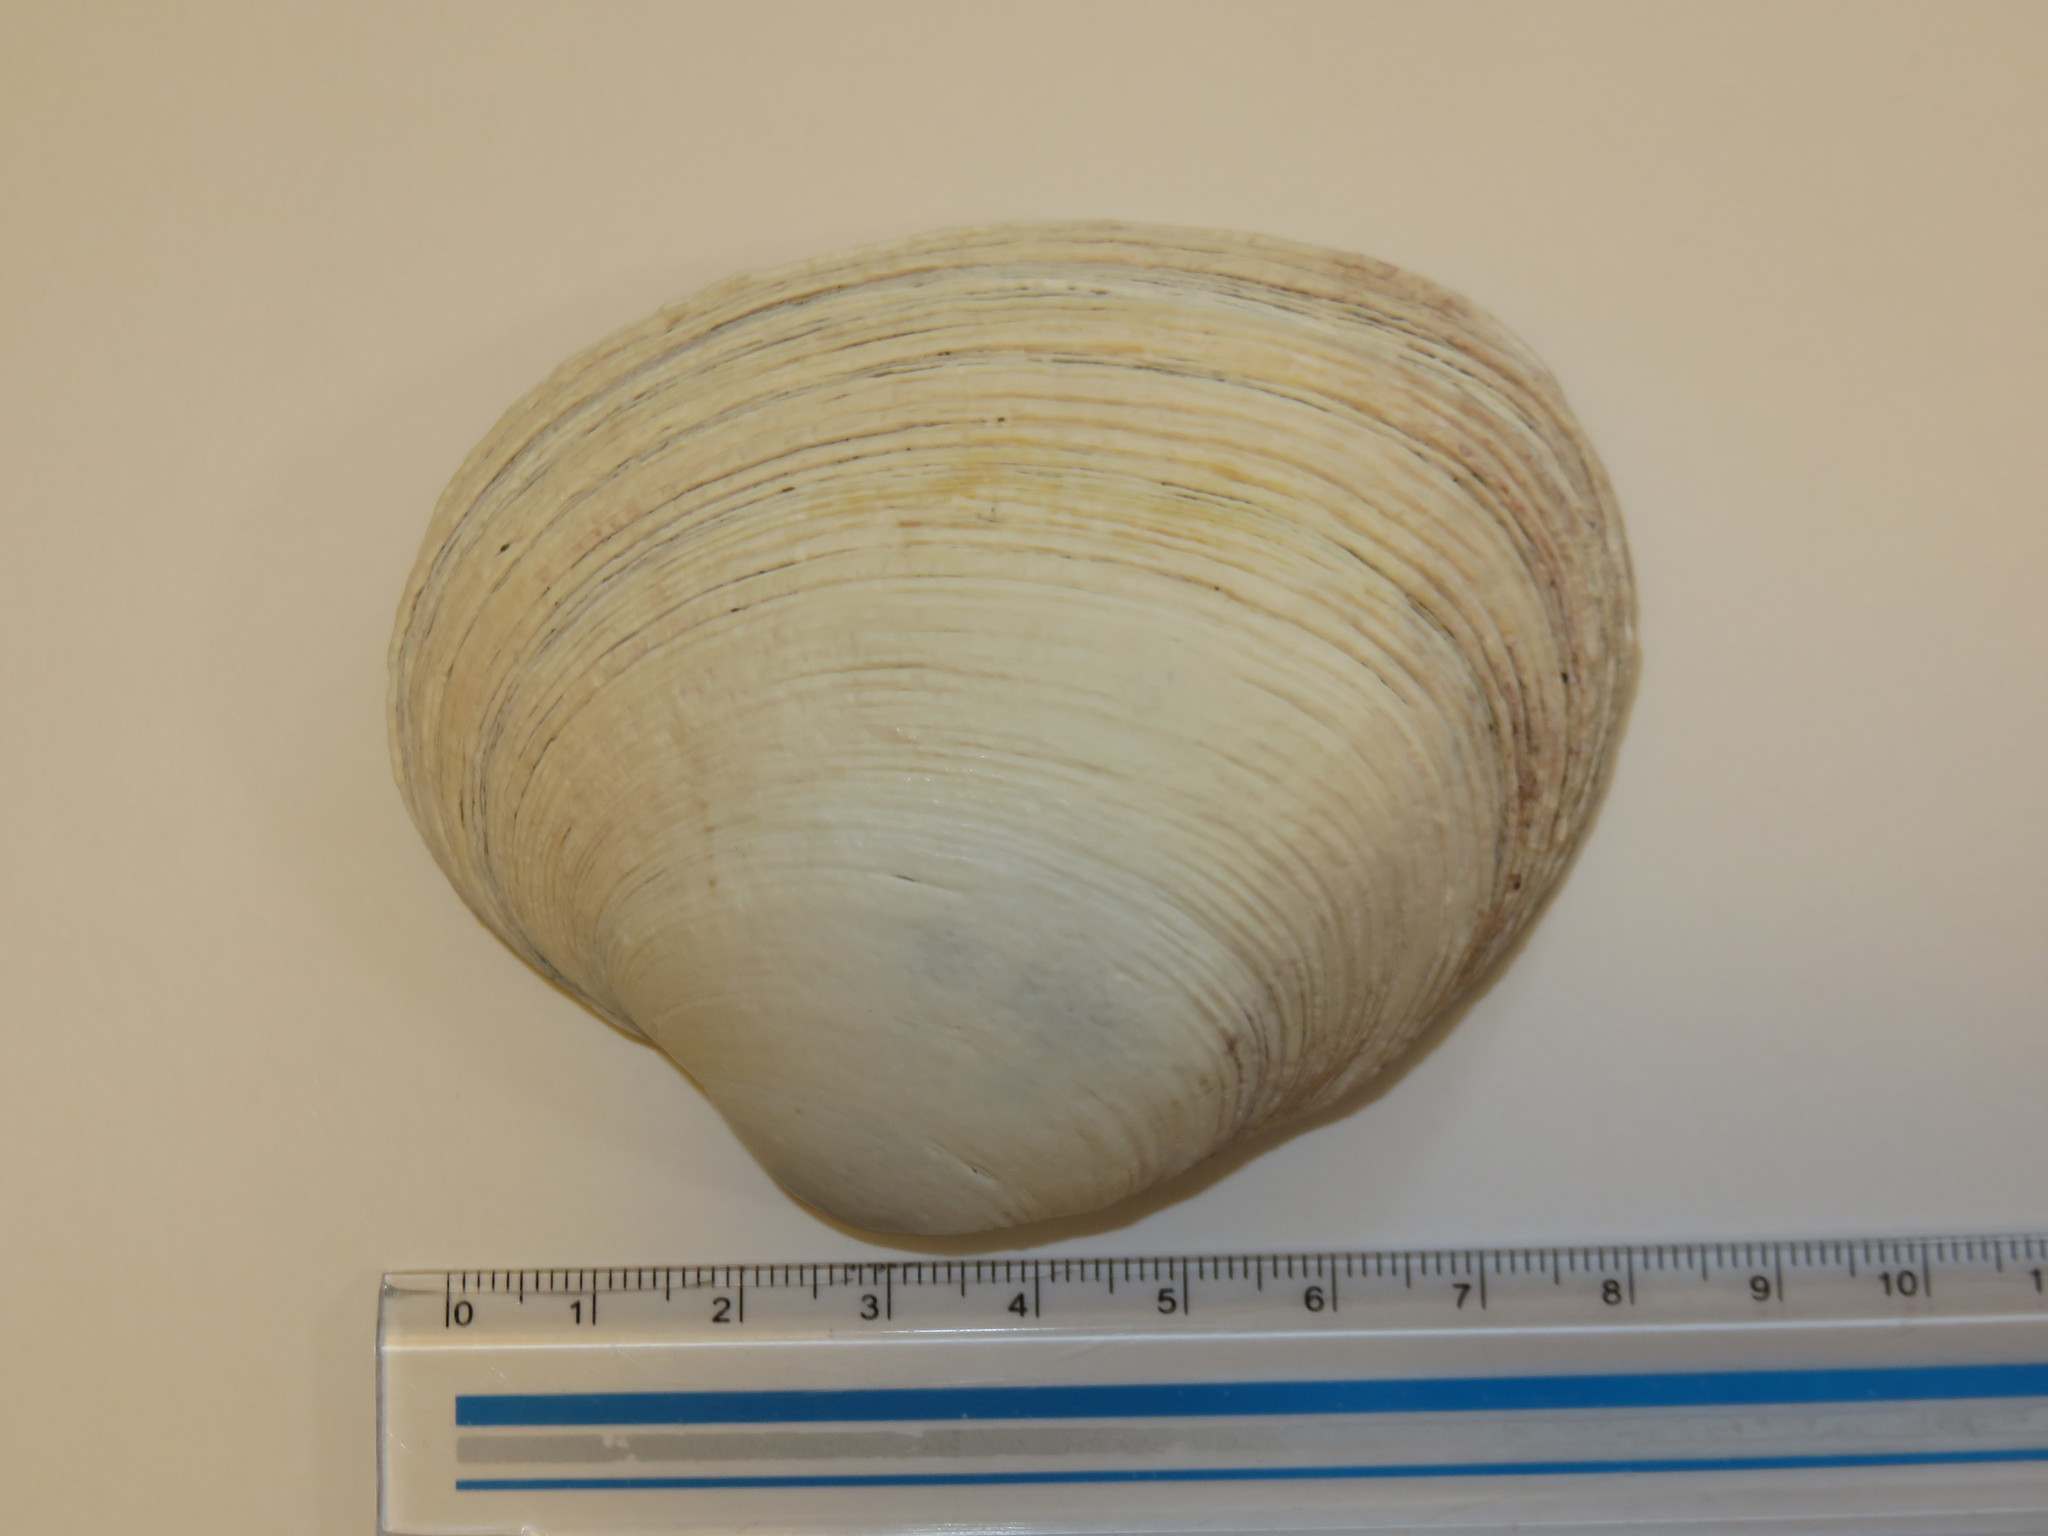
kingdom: Animalia
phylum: Mollusca
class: Bivalvia
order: Venerida
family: Veneridae
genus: Saxidomus
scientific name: Saxidomus purpurata
